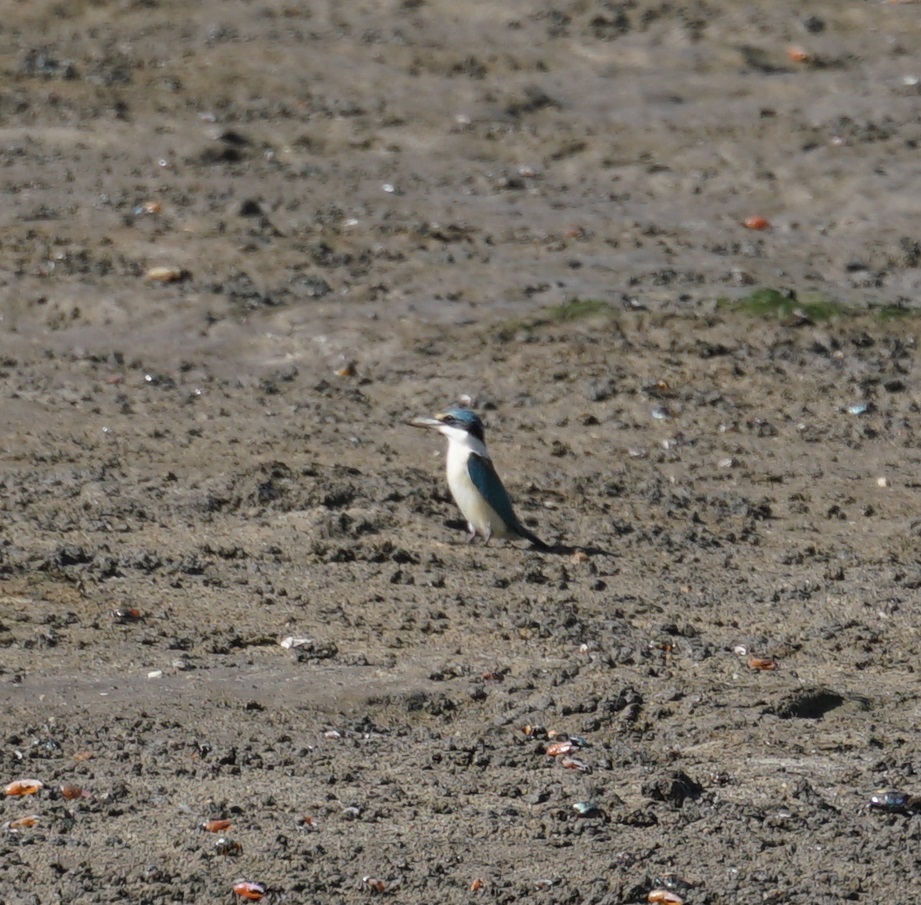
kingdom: Animalia
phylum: Chordata
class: Aves
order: Coraciiformes
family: Alcedinidae
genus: Todiramphus
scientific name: Todiramphus sanctus
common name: Sacred kingfisher
